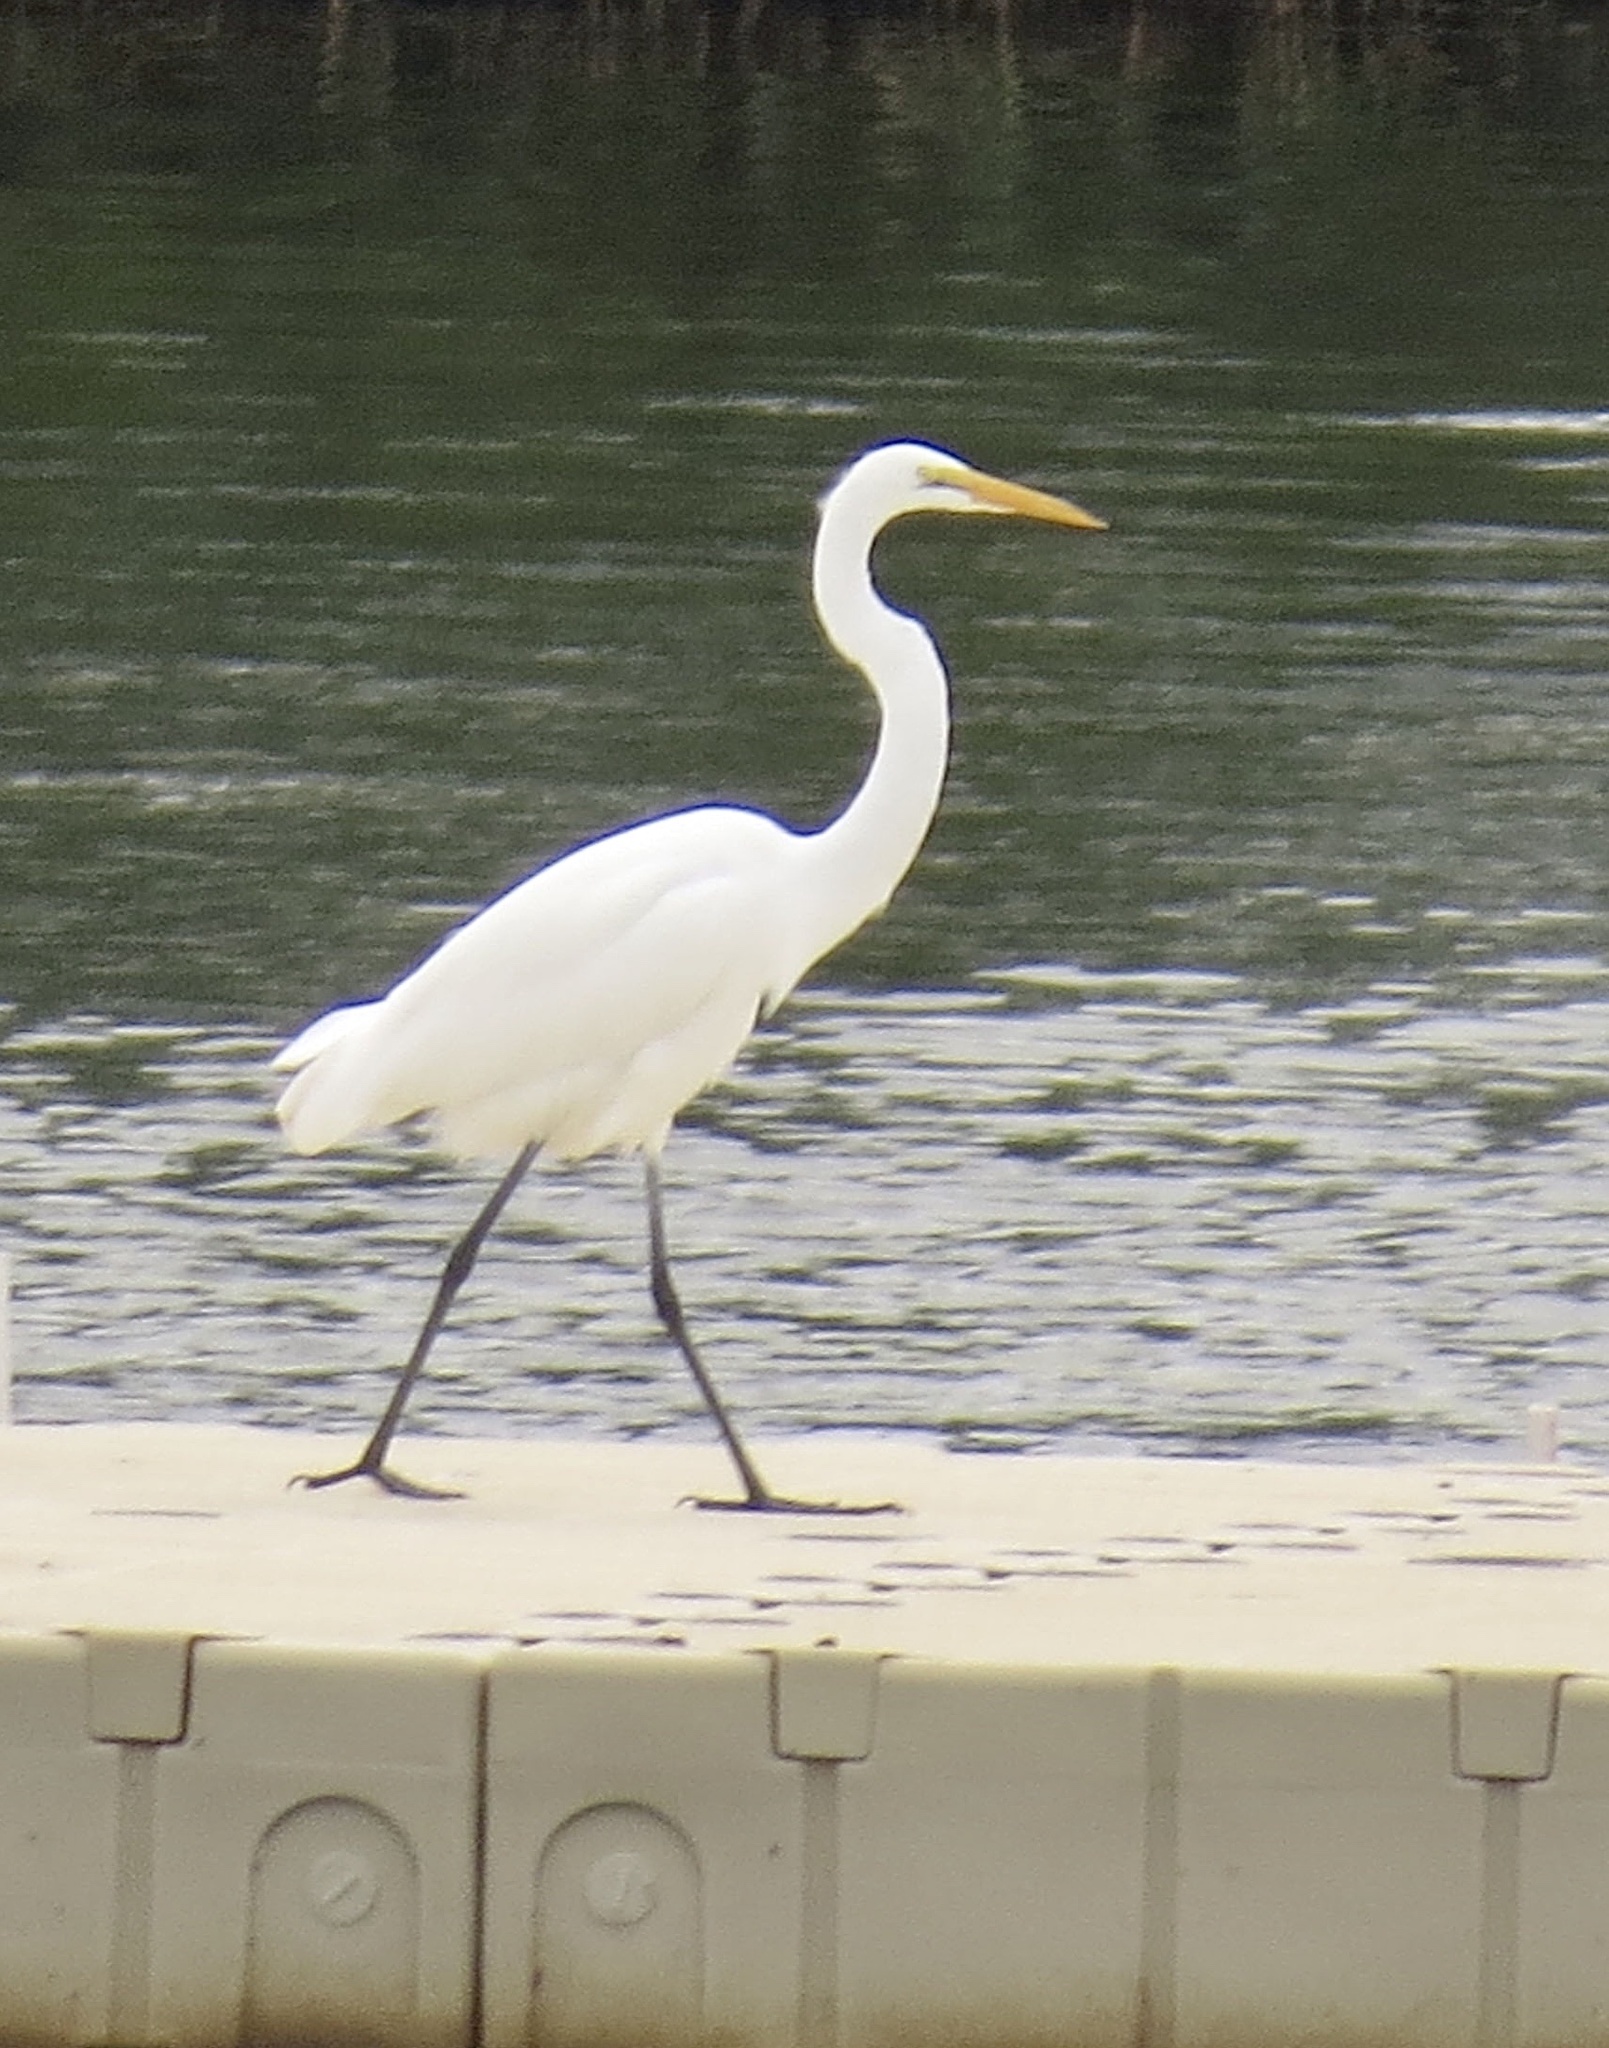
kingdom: Animalia
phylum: Chordata
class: Aves
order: Pelecaniformes
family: Ardeidae
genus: Ardea
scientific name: Ardea alba
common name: Great egret
